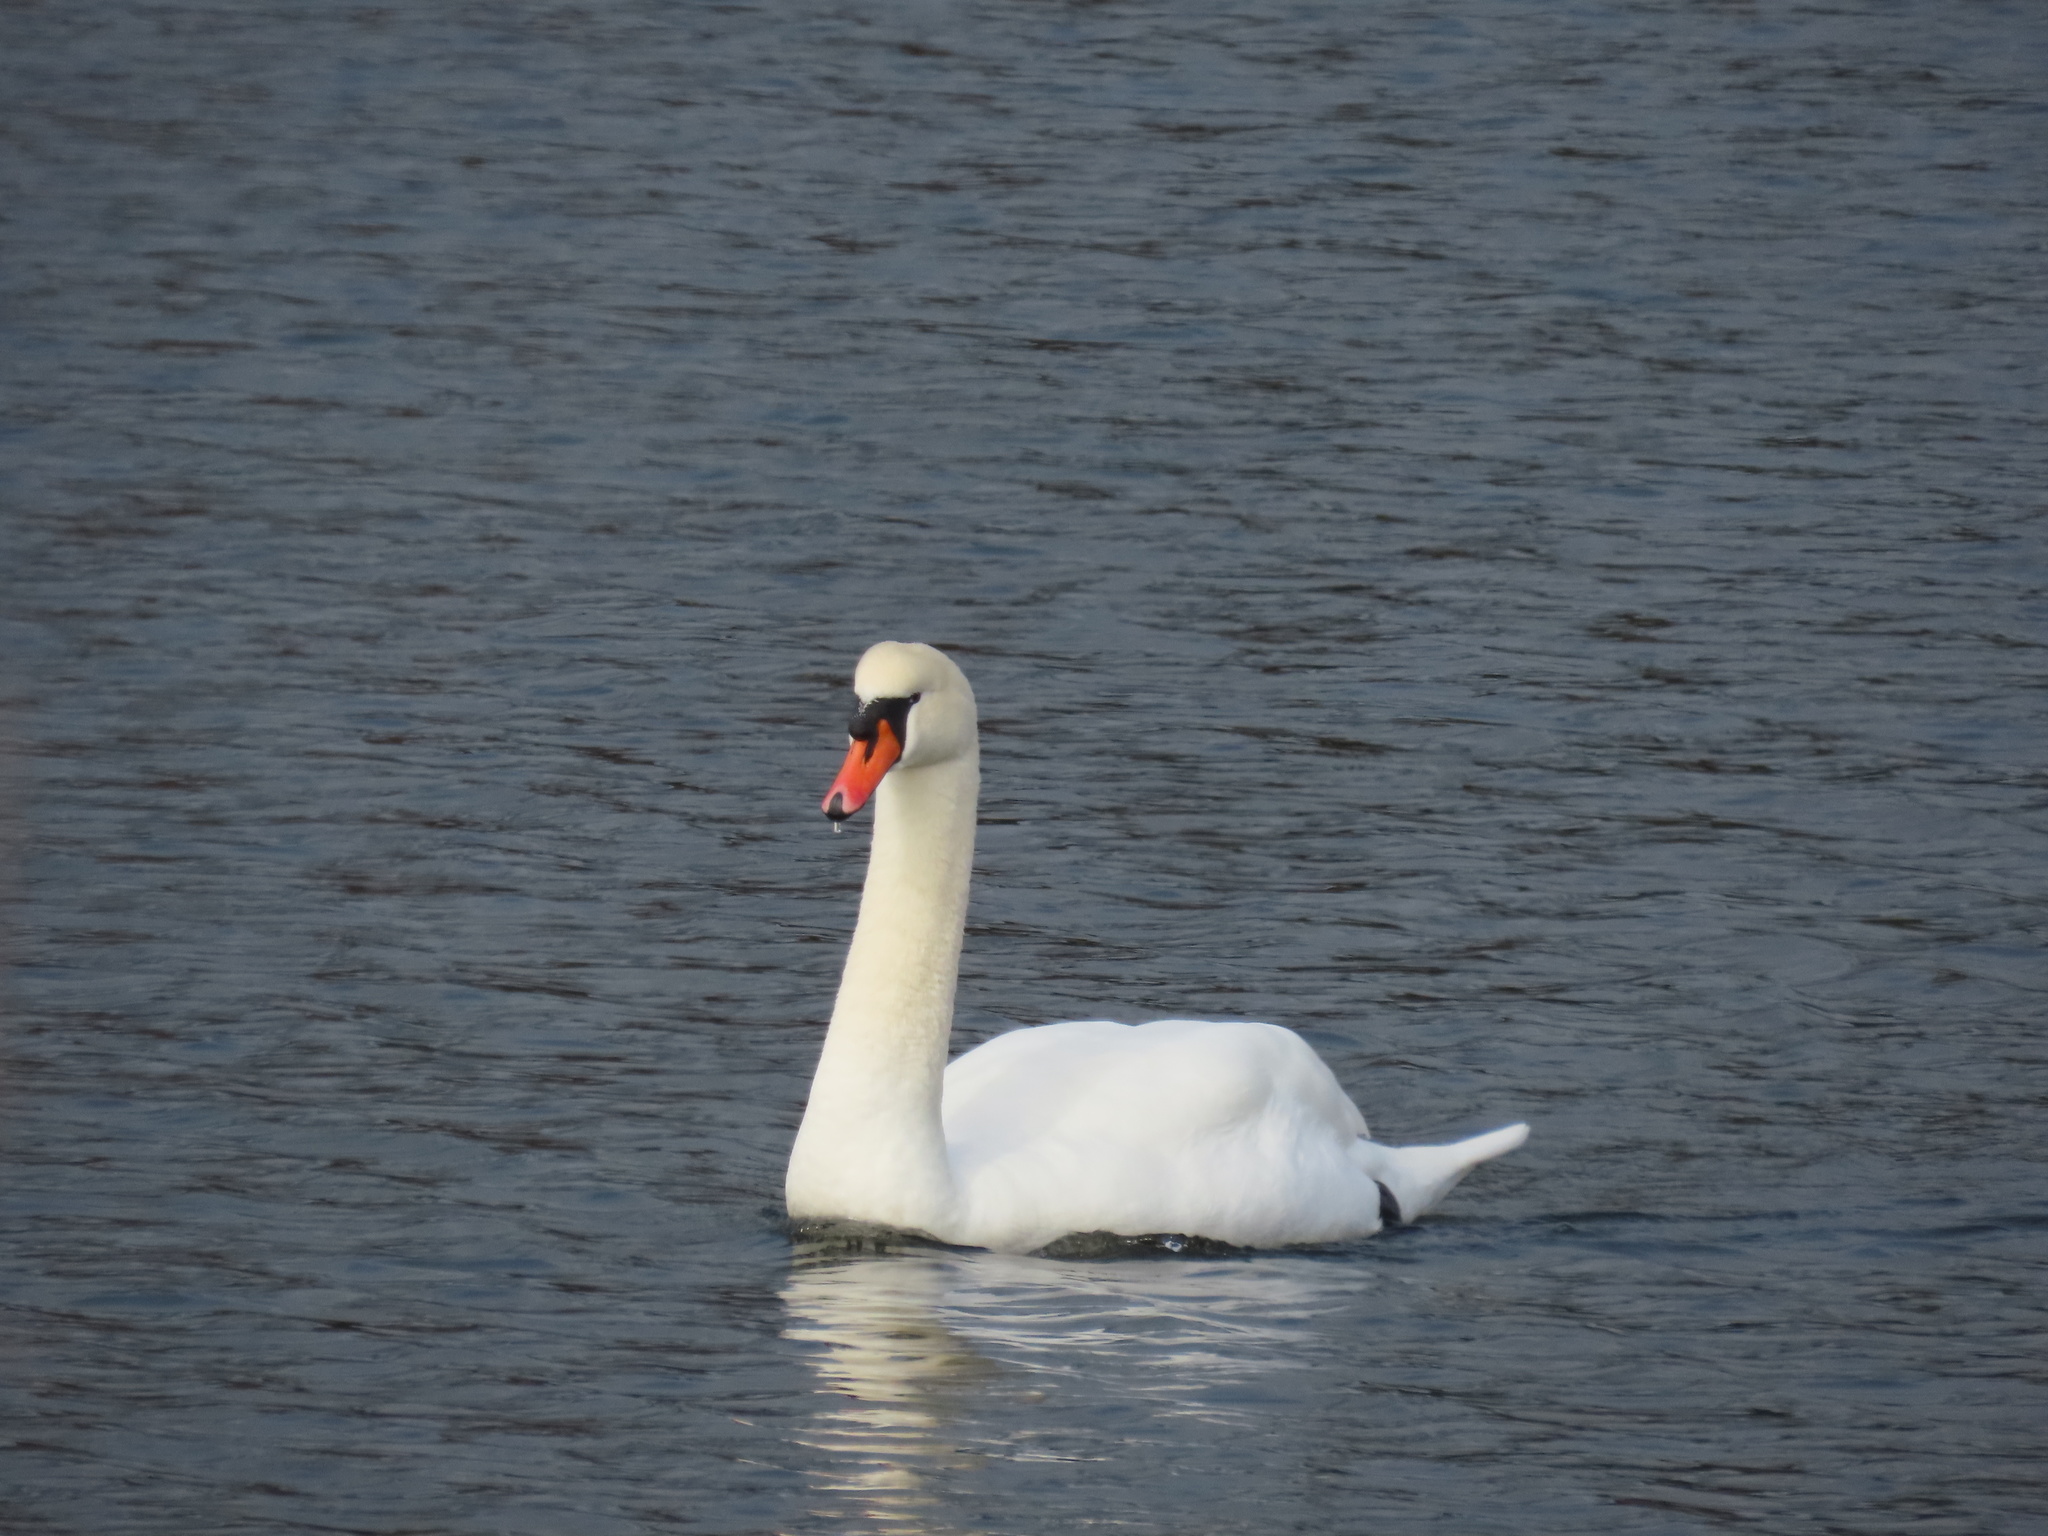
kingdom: Animalia
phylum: Chordata
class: Aves
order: Anseriformes
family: Anatidae
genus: Cygnus
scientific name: Cygnus olor
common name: Mute swan
